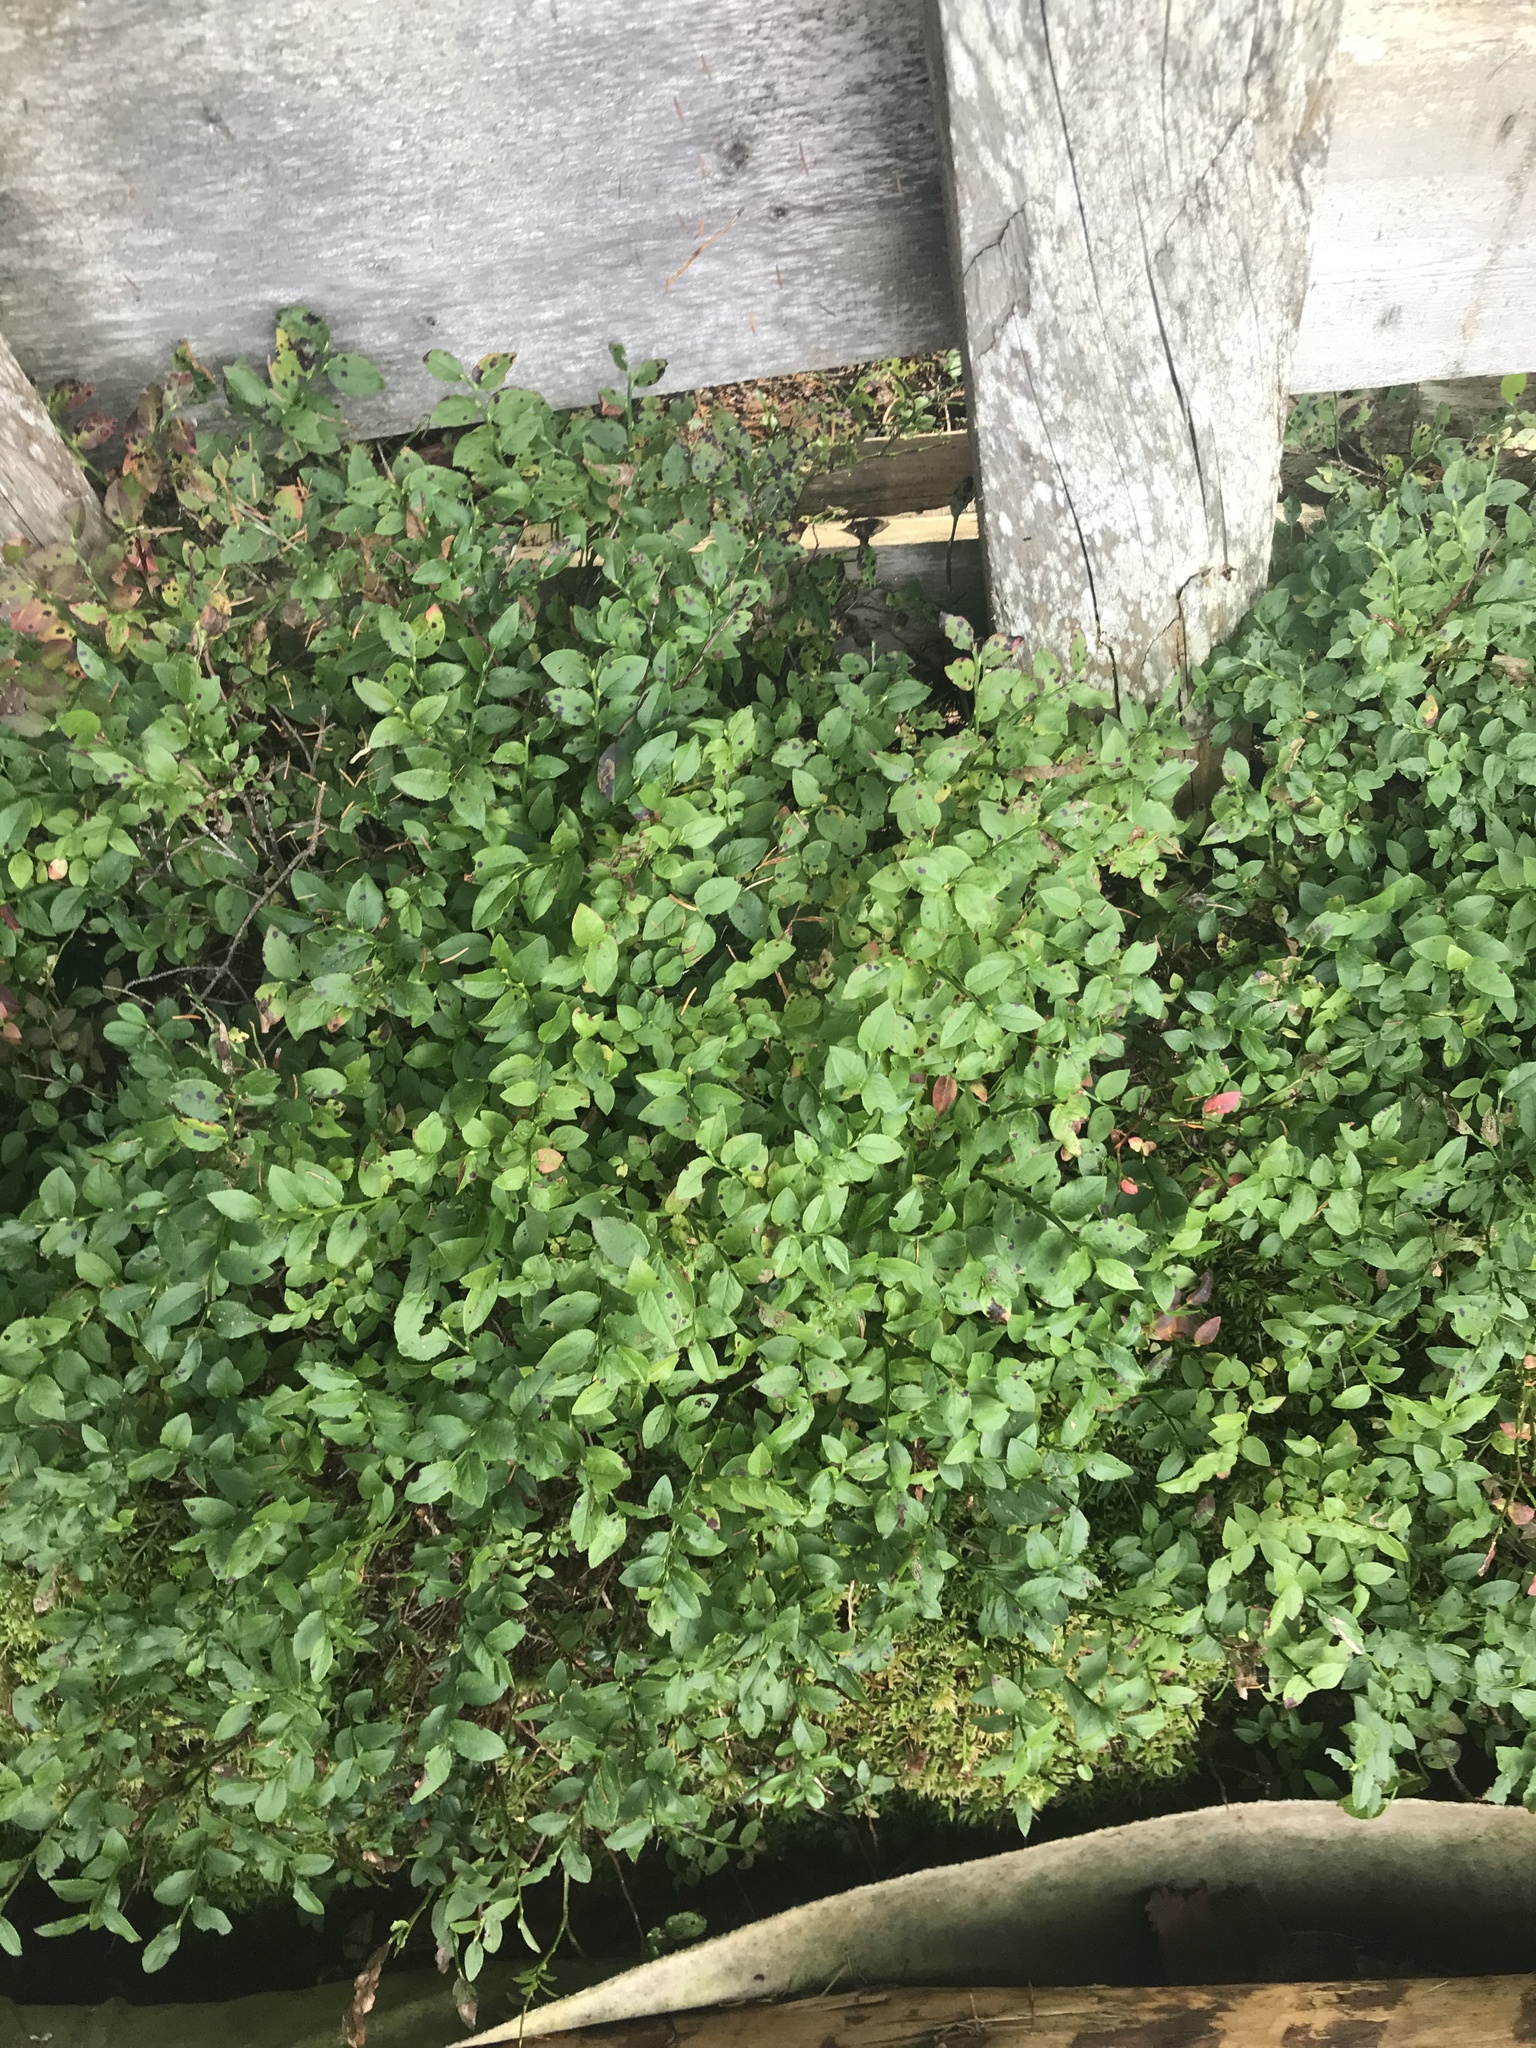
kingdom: Plantae
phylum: Tracheophyta
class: Magnoliopsida
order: Ericales
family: Ericaceae
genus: Vaccinium
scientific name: Vaccinium myrtillus
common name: Bilberry
